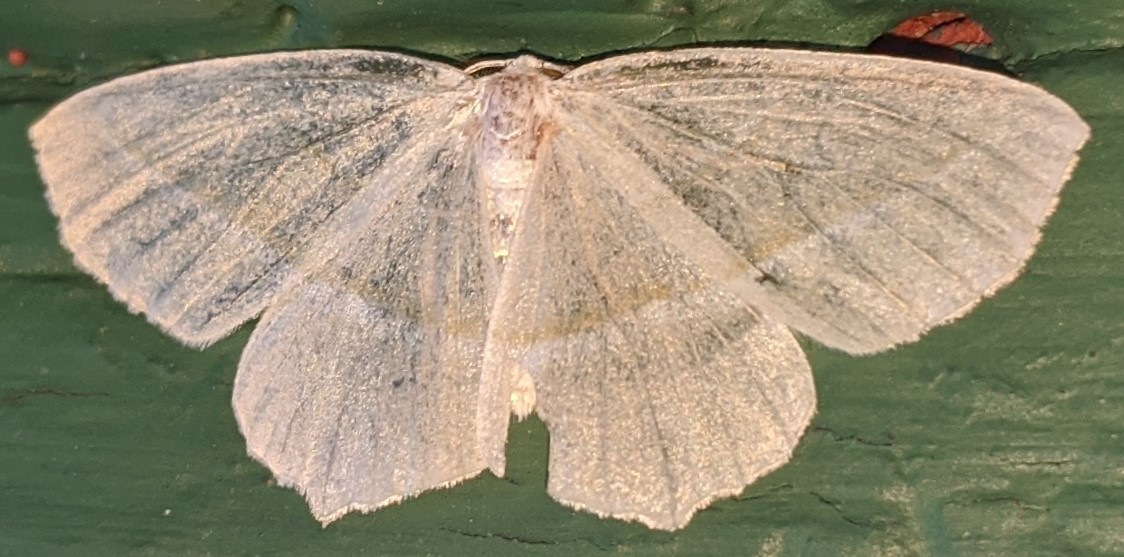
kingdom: Animalia
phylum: Arthropoda
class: Insecta
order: Lepidoptera
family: Geometridae
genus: Campaea
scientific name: Campaea perlata
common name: Fringed looper
